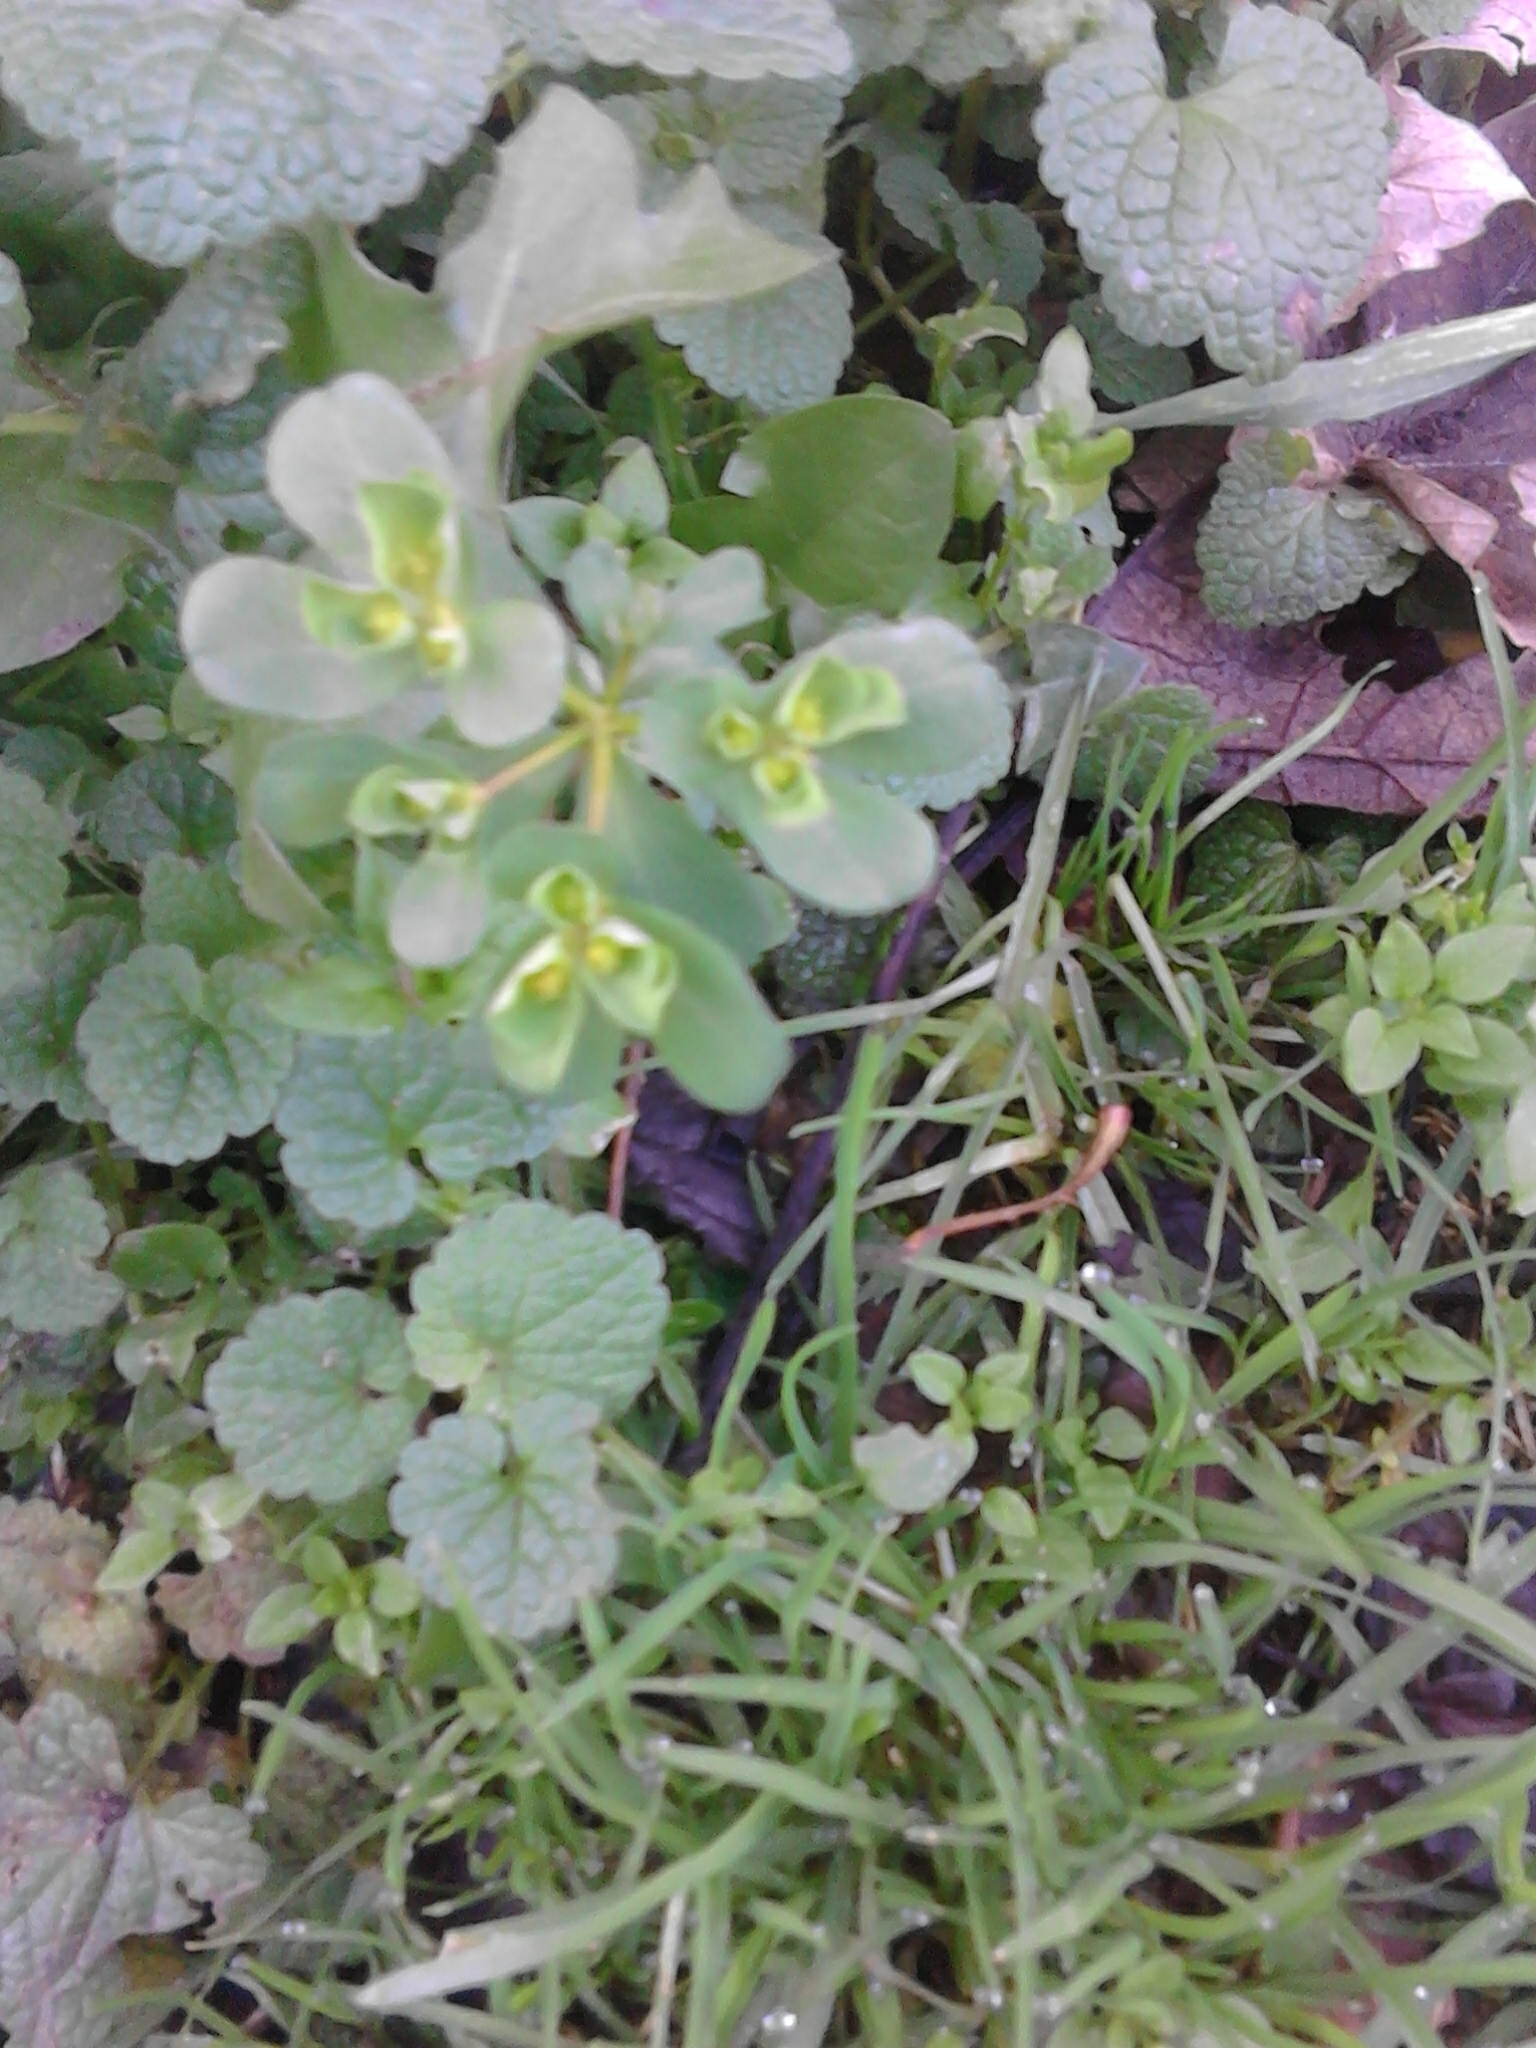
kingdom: Plantae
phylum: Tracheophyta
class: Magnoliopsida
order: Malpighiales
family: Euphorbiaceae
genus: Euphorbia
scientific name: Euphorbia helioscopia
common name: Sun spurge
